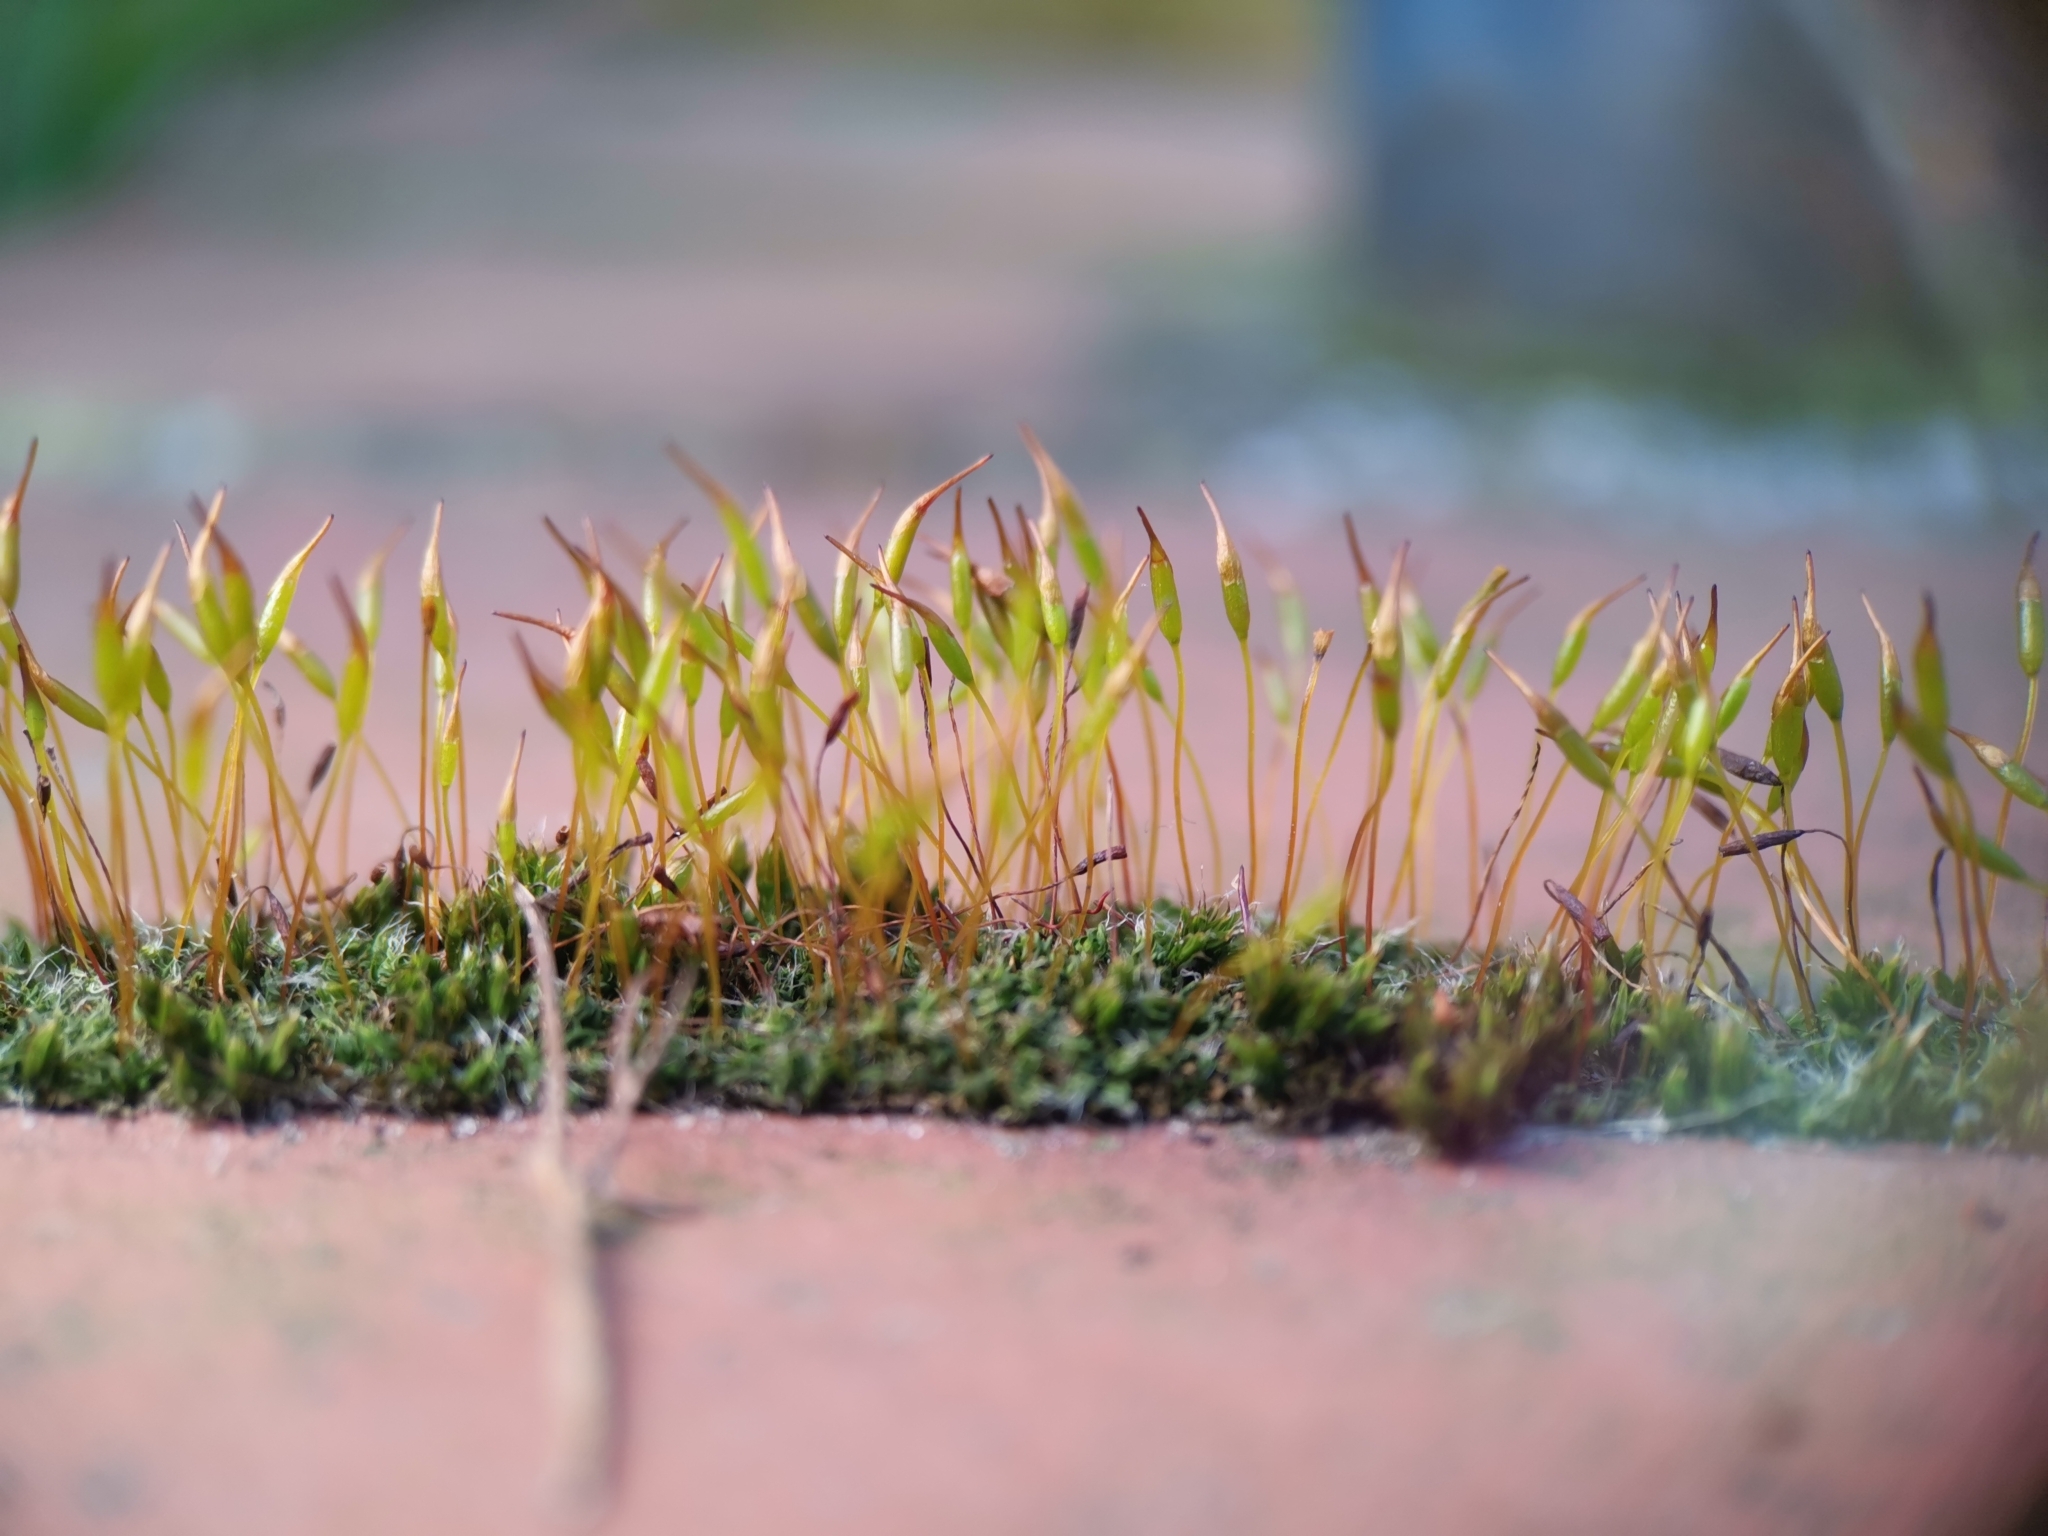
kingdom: Plantae
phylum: Bryophyta
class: Bryopsida
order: Pottiales
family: Pottiaceae
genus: Tortula
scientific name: Tortula muralis
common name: Wall screw-moss
